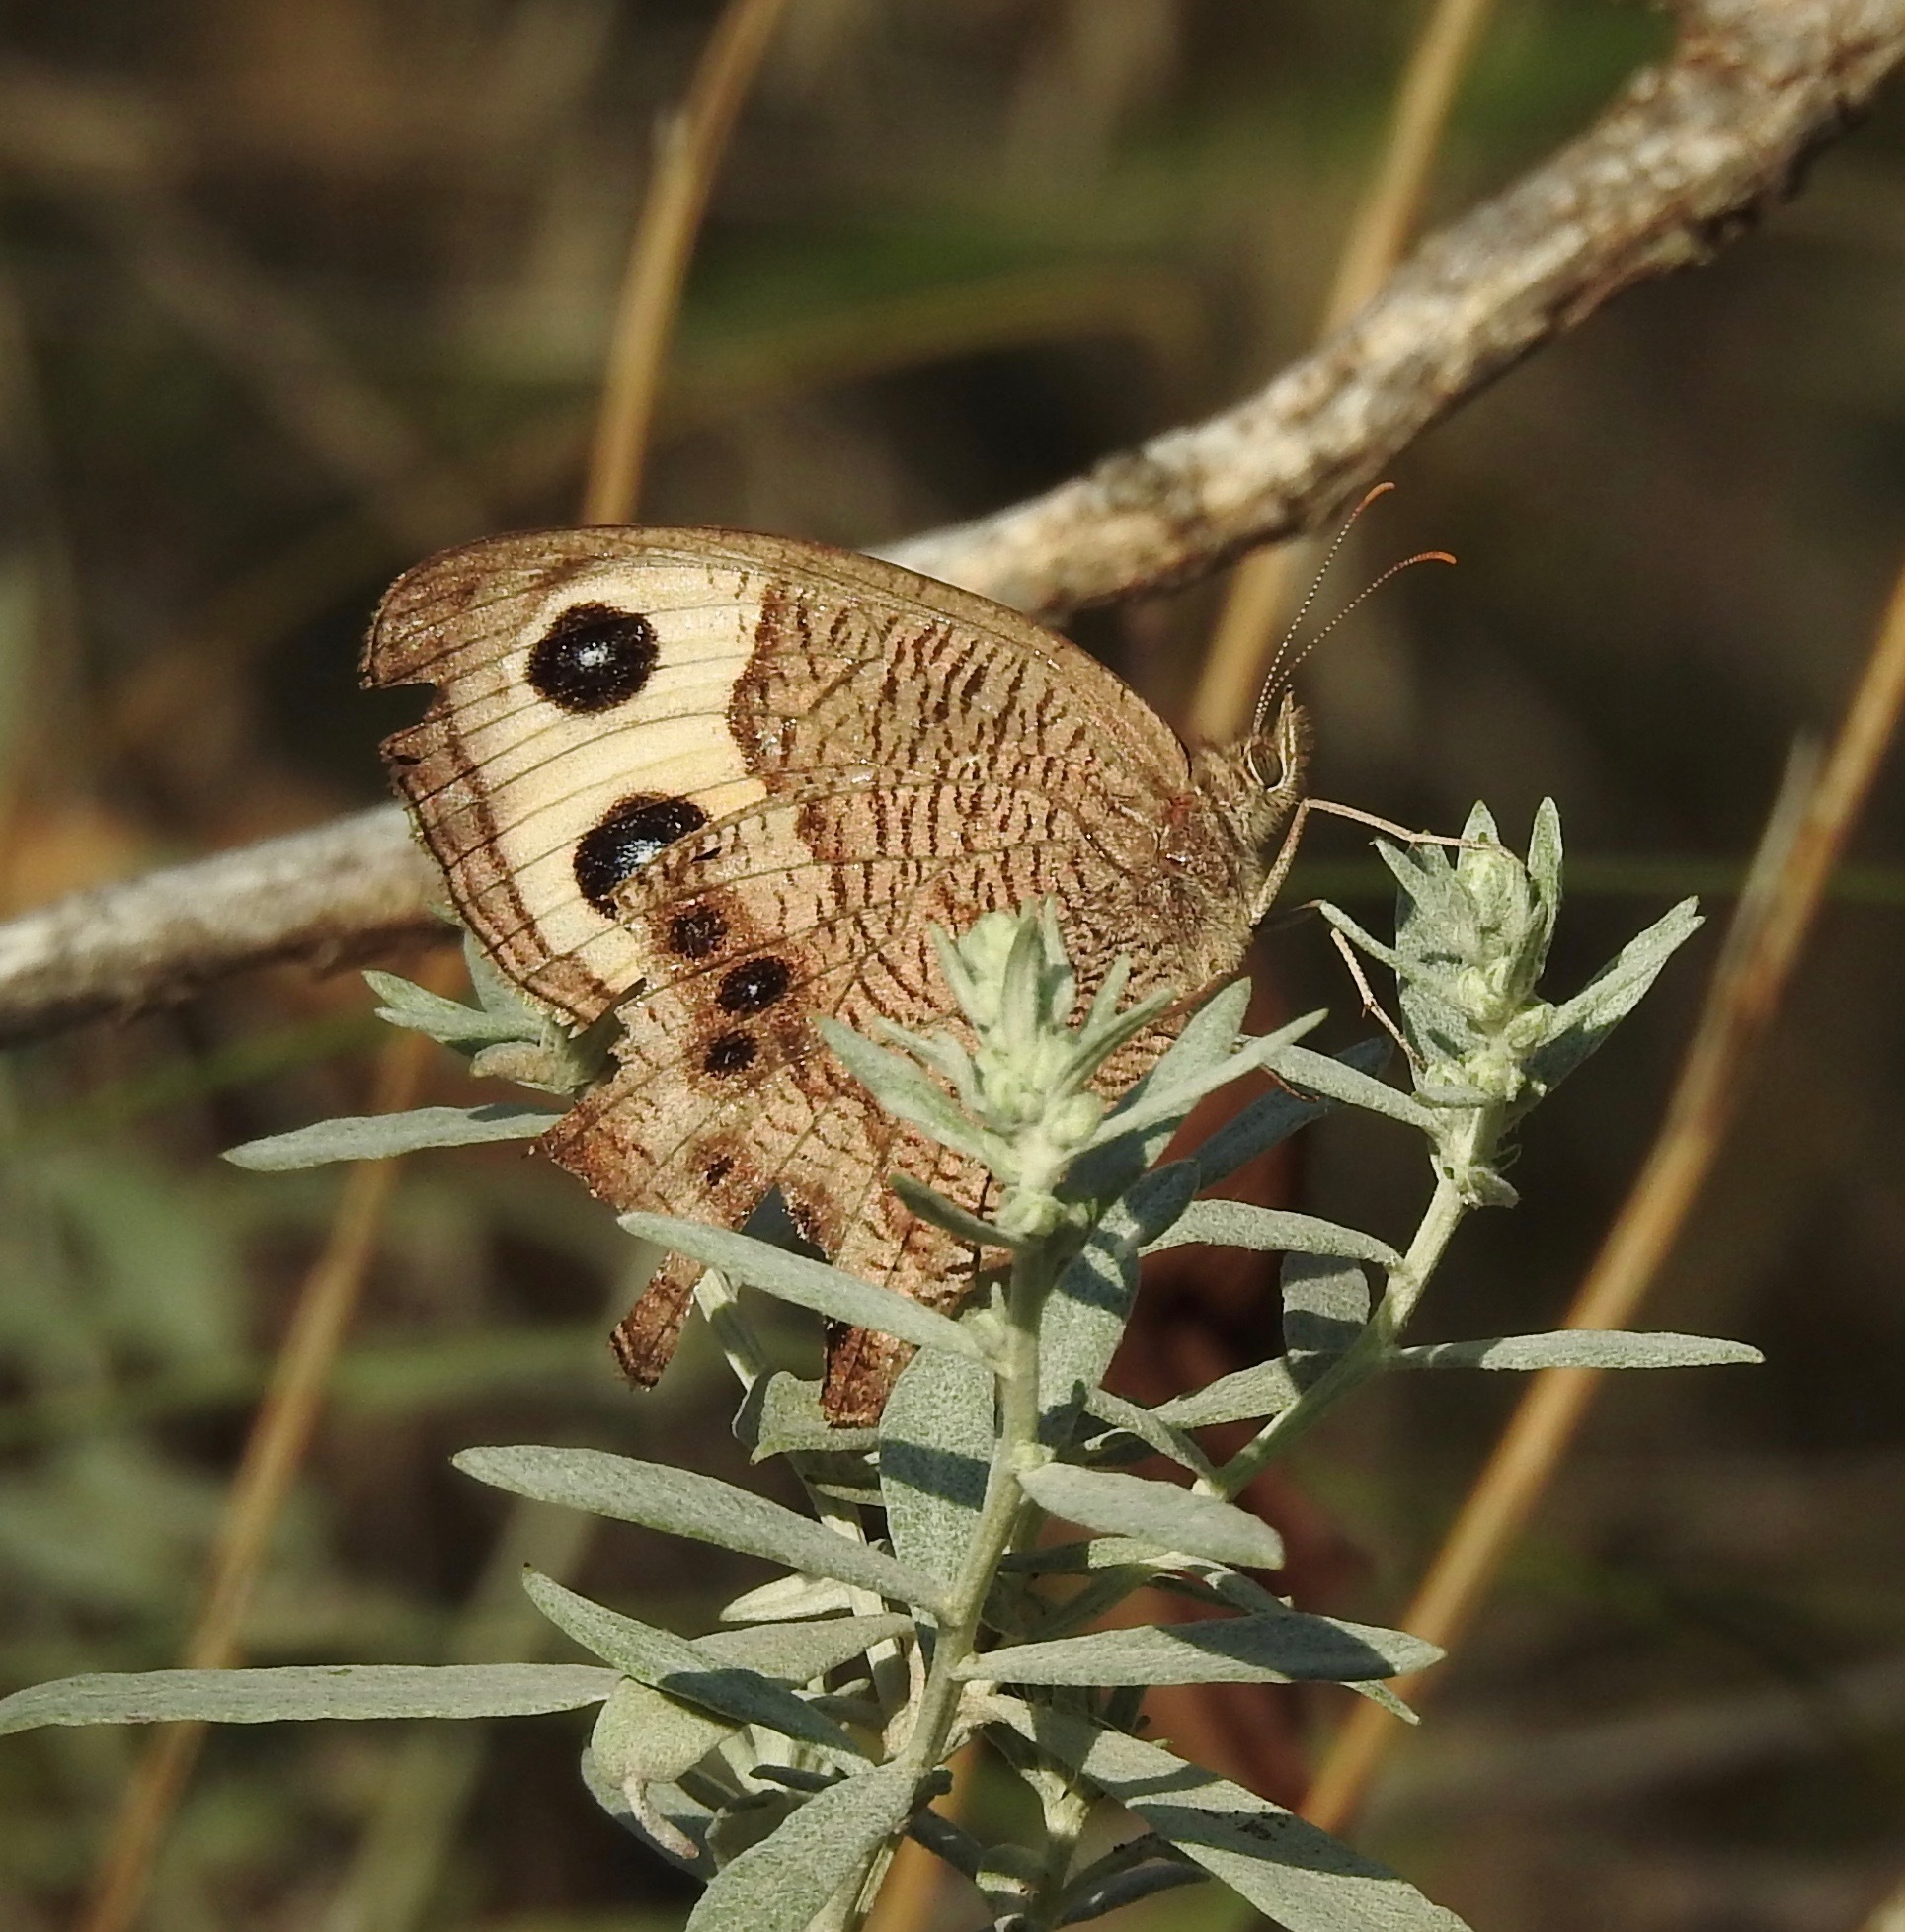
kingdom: Animalia
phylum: Arthropoda
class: Insecta
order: Lepidoptera
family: Nymphalidae
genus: Cercyonis
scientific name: Cercyonis pegala
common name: Common wood-nymph
